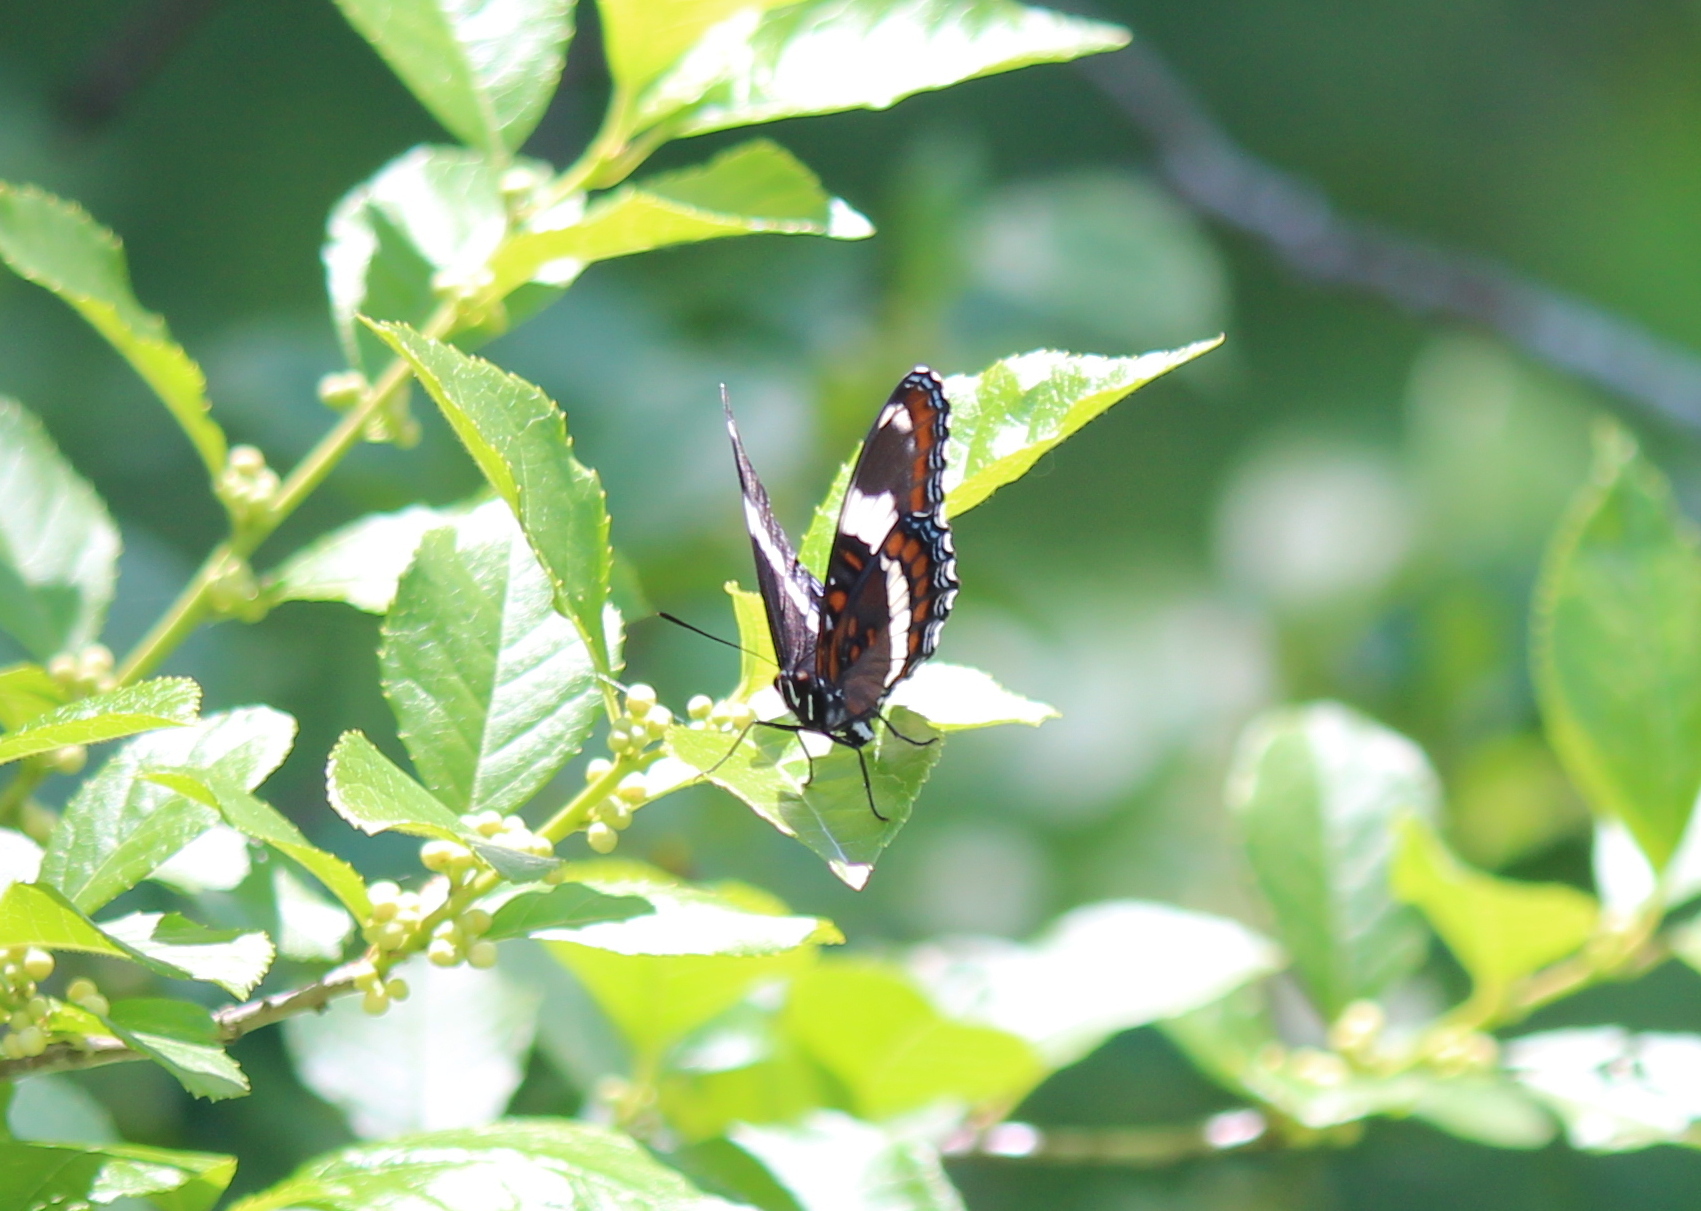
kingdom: Animalia
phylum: Arthropoda
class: Insecta
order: Lepidoptera
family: Nymphalidae
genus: Limenitis
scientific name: Limenitis arthemis
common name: Red-spotted admiral
